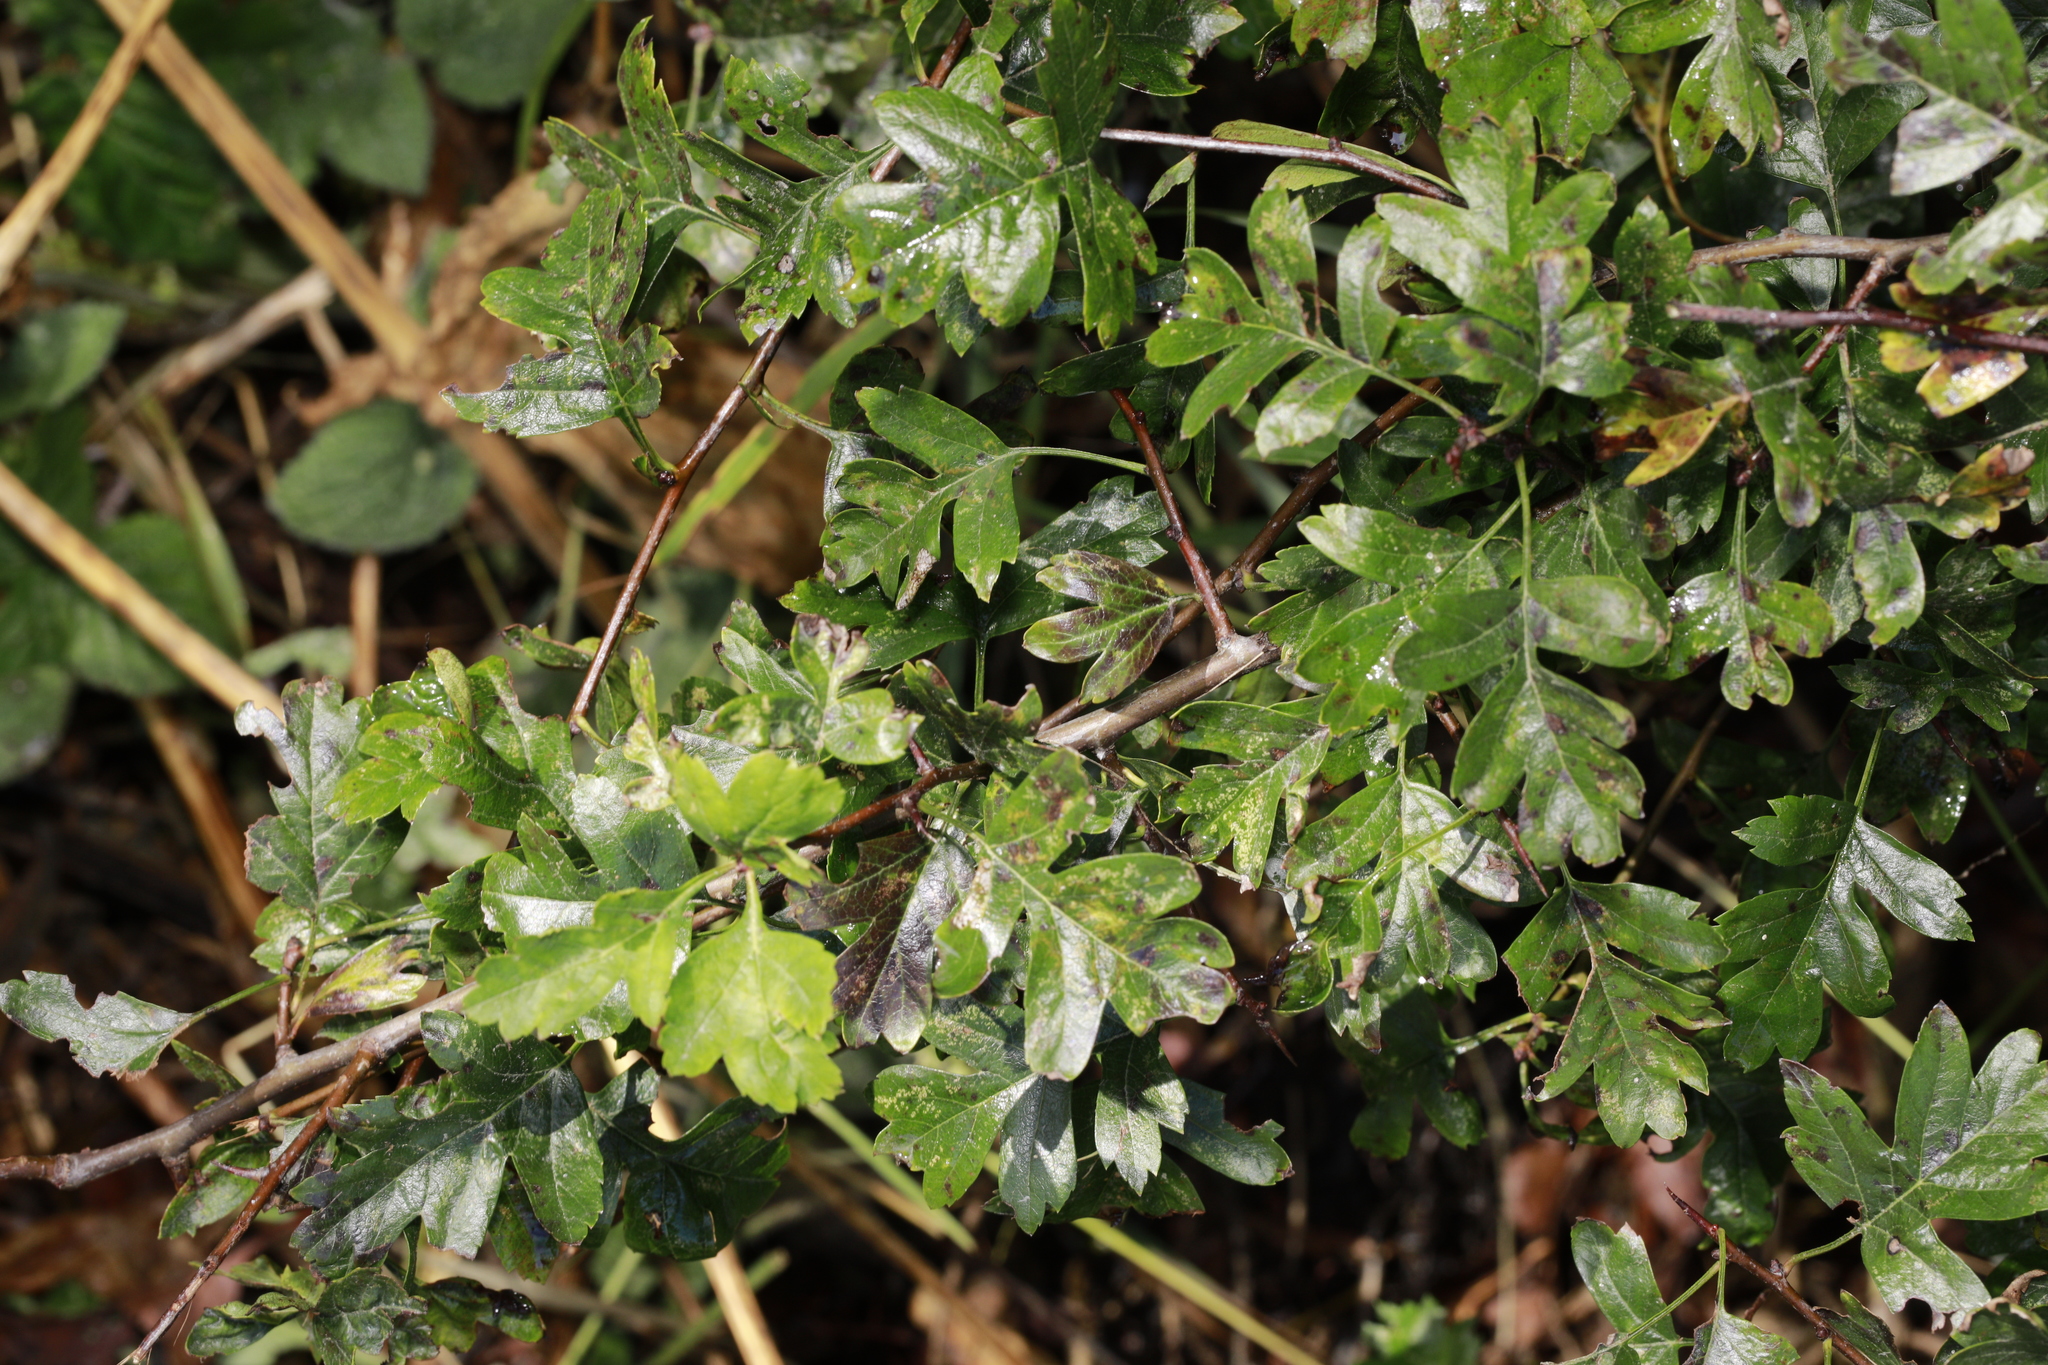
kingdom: Plantae
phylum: Tracheophyta
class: Magnoliopsida
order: Rosales
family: Rosaceae
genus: Crataegus
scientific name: Crataegus monogyna
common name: Hawthorn
